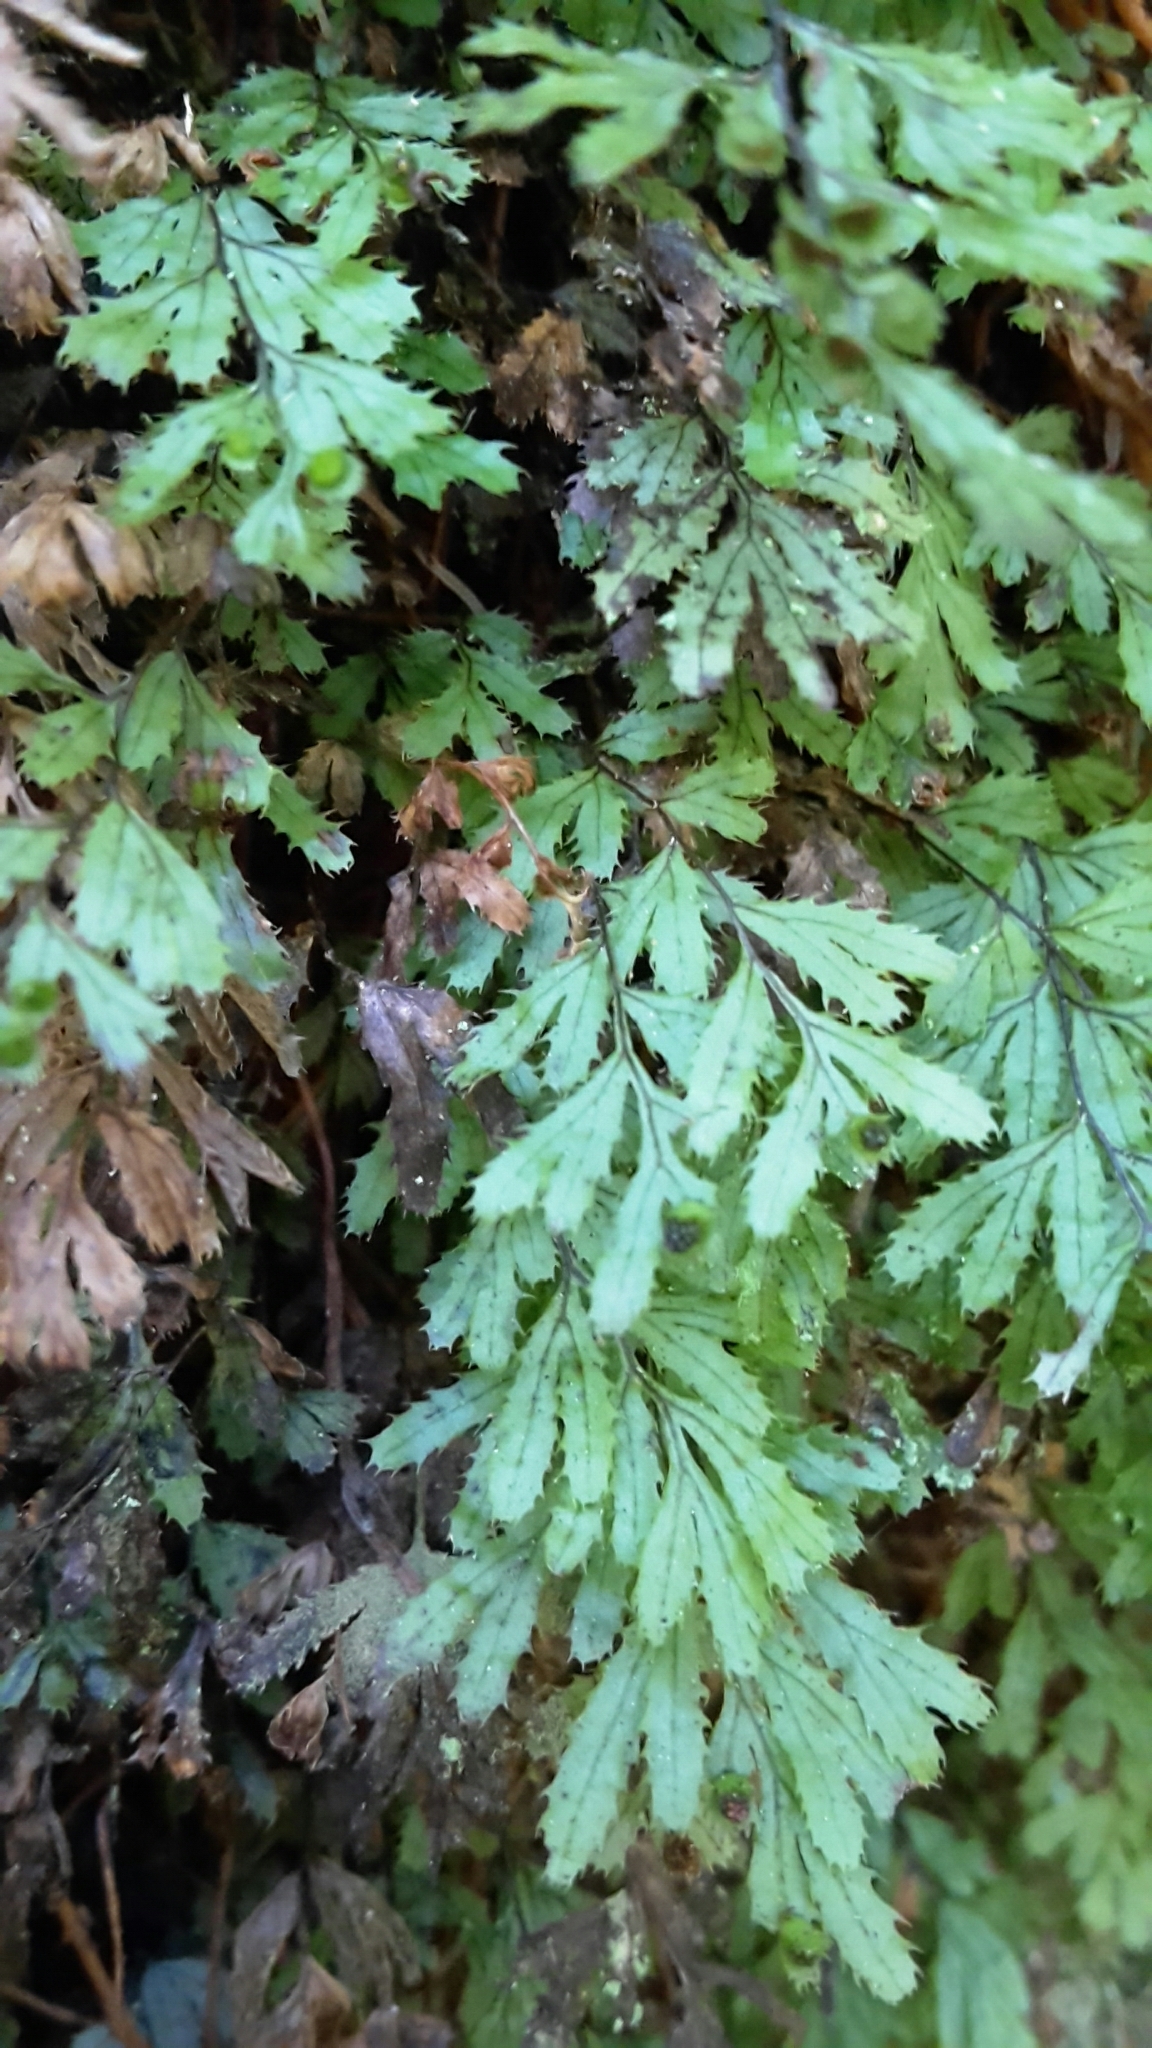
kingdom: Plantae
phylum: Tracheophyta
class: Polypodiopsida
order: Hymenophyllales
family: Hymenophyllaceae
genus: Hymenophyllum
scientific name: Hymenophyllum revolutum
